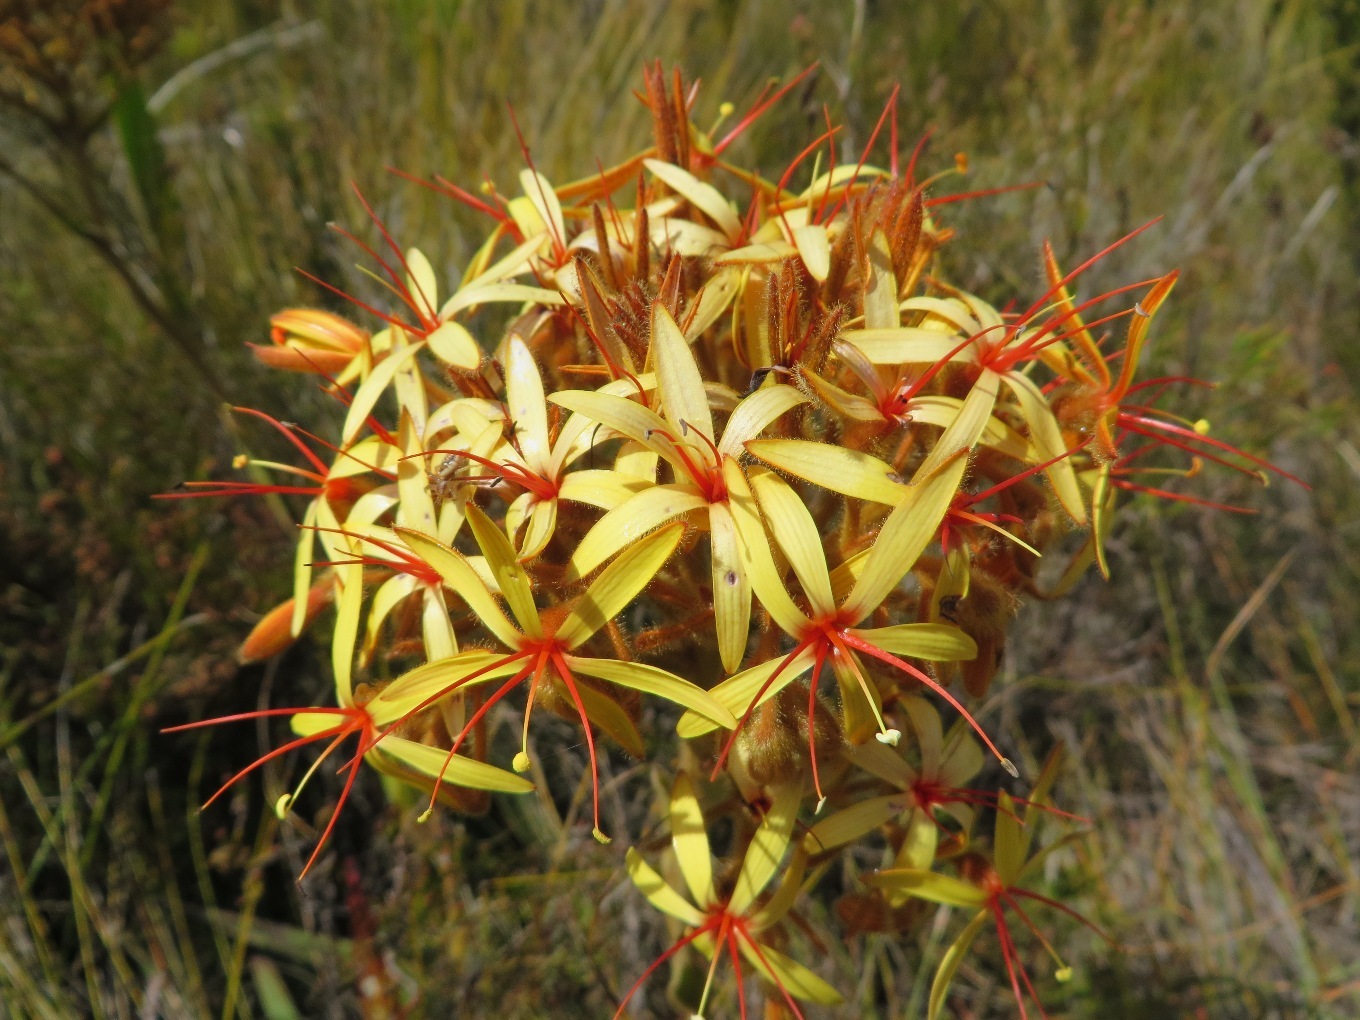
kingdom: Plantae
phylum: Tracheophyta
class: Liliopsida
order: Commelinales
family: Haemodoraceae
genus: Dilatris
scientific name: Dilatris viscosa
